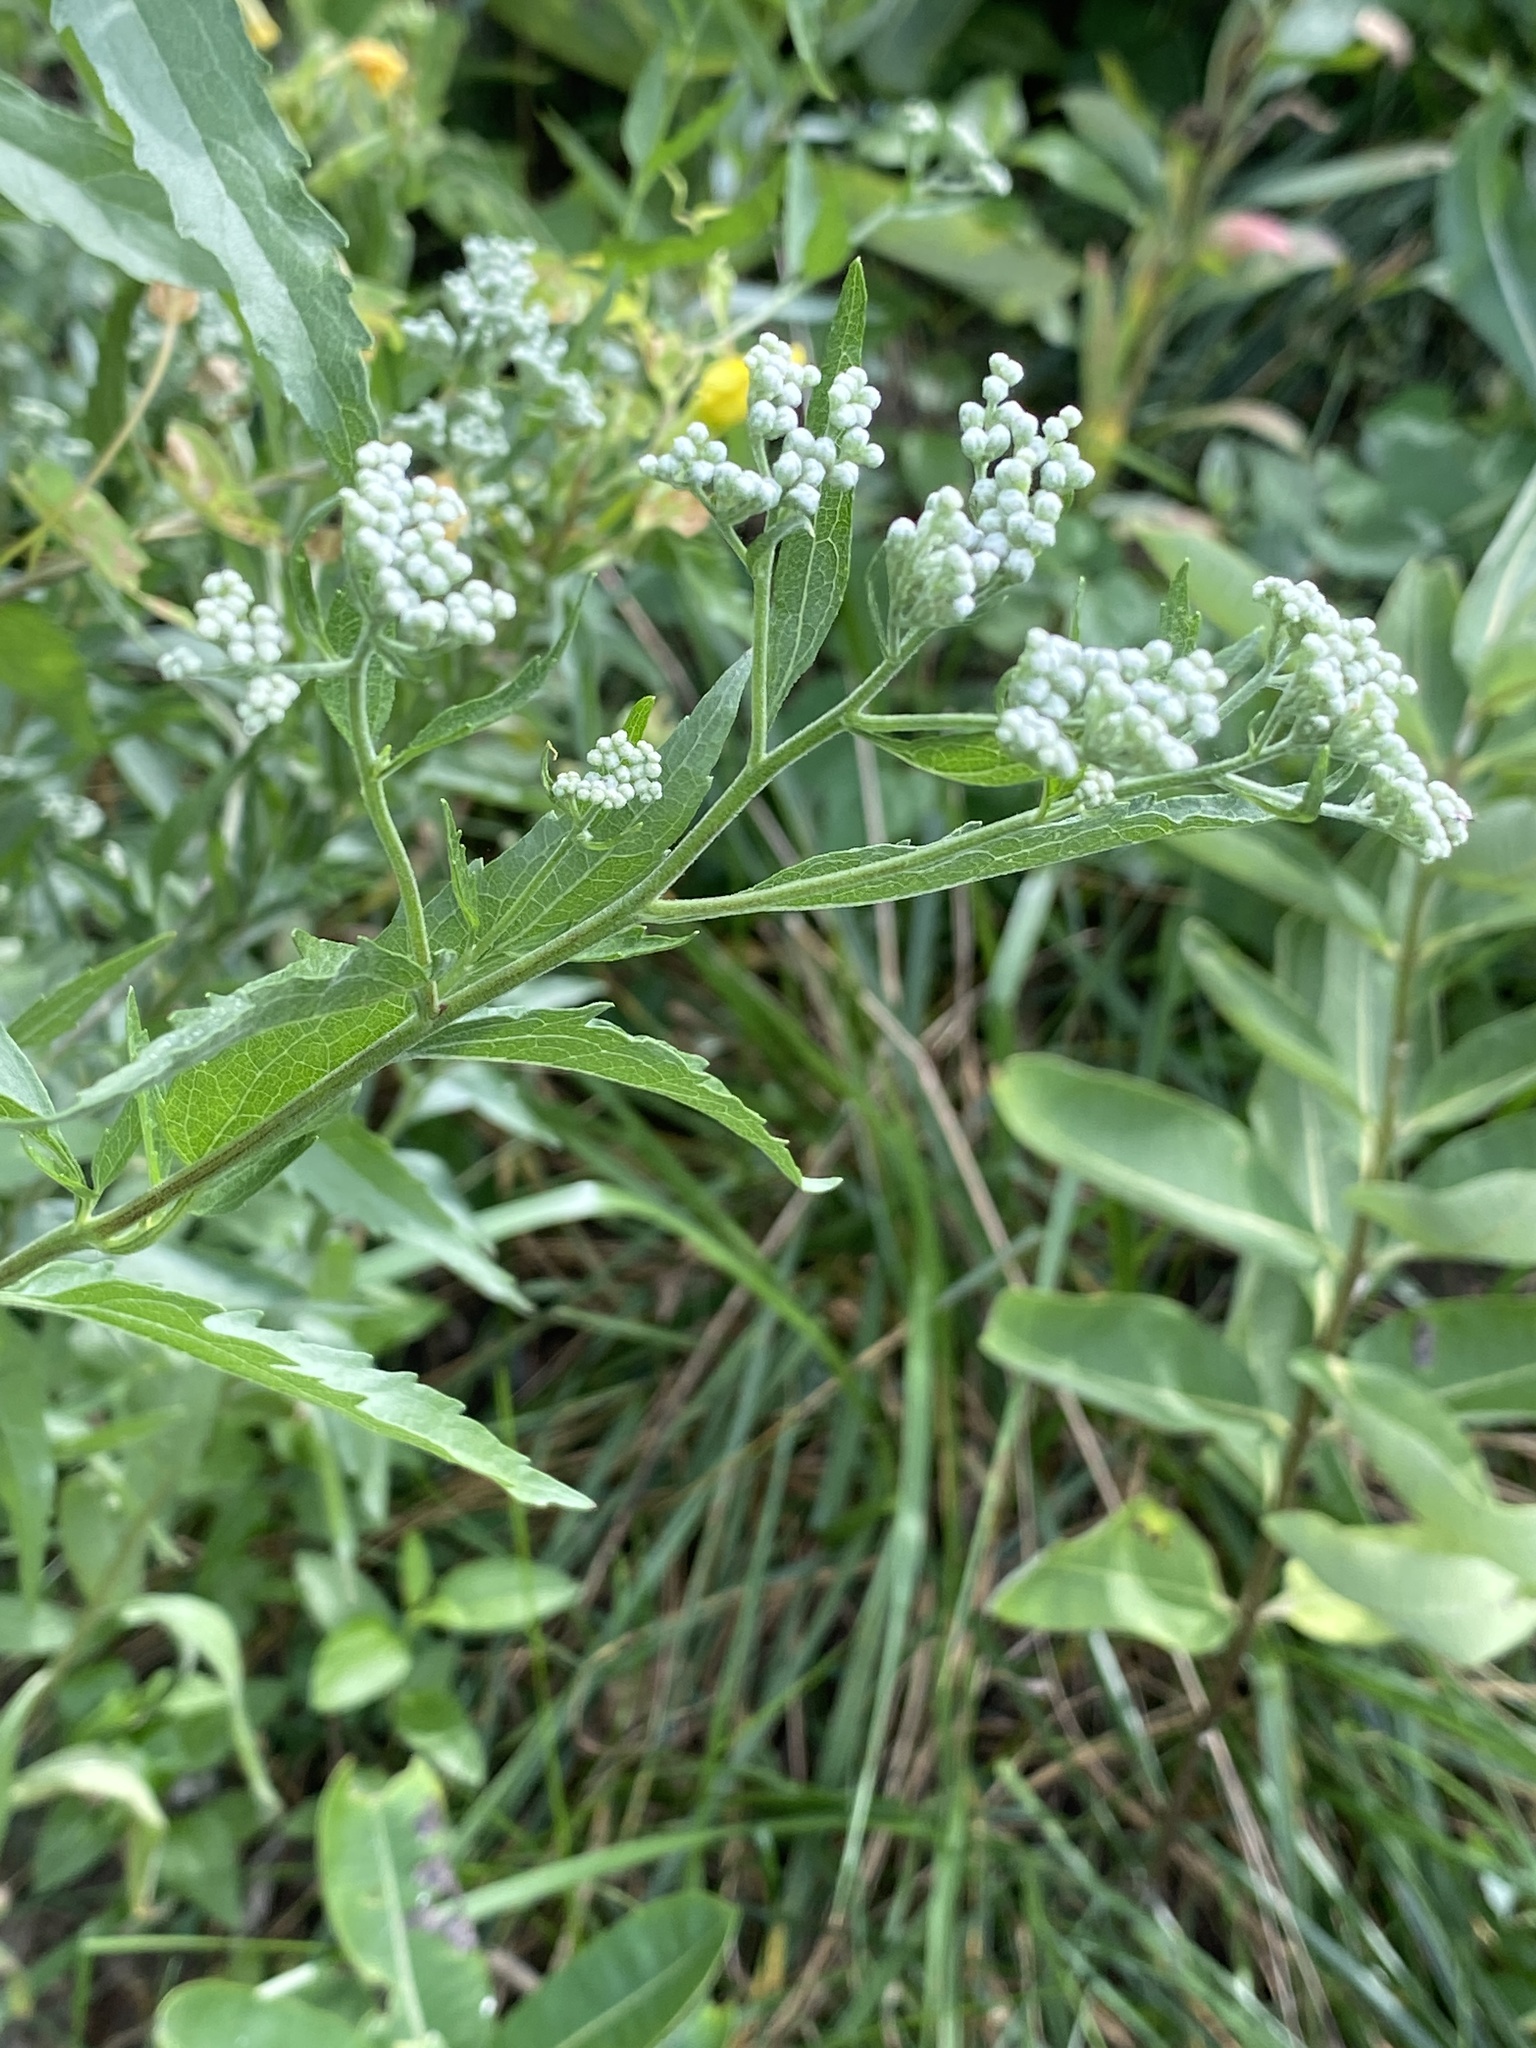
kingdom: Plantae
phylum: Tracheophyta
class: Magnoliopsida
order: Asterales
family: Asteraceae
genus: Eupatorium
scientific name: Eupatorium serotinum
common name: Late boneset
